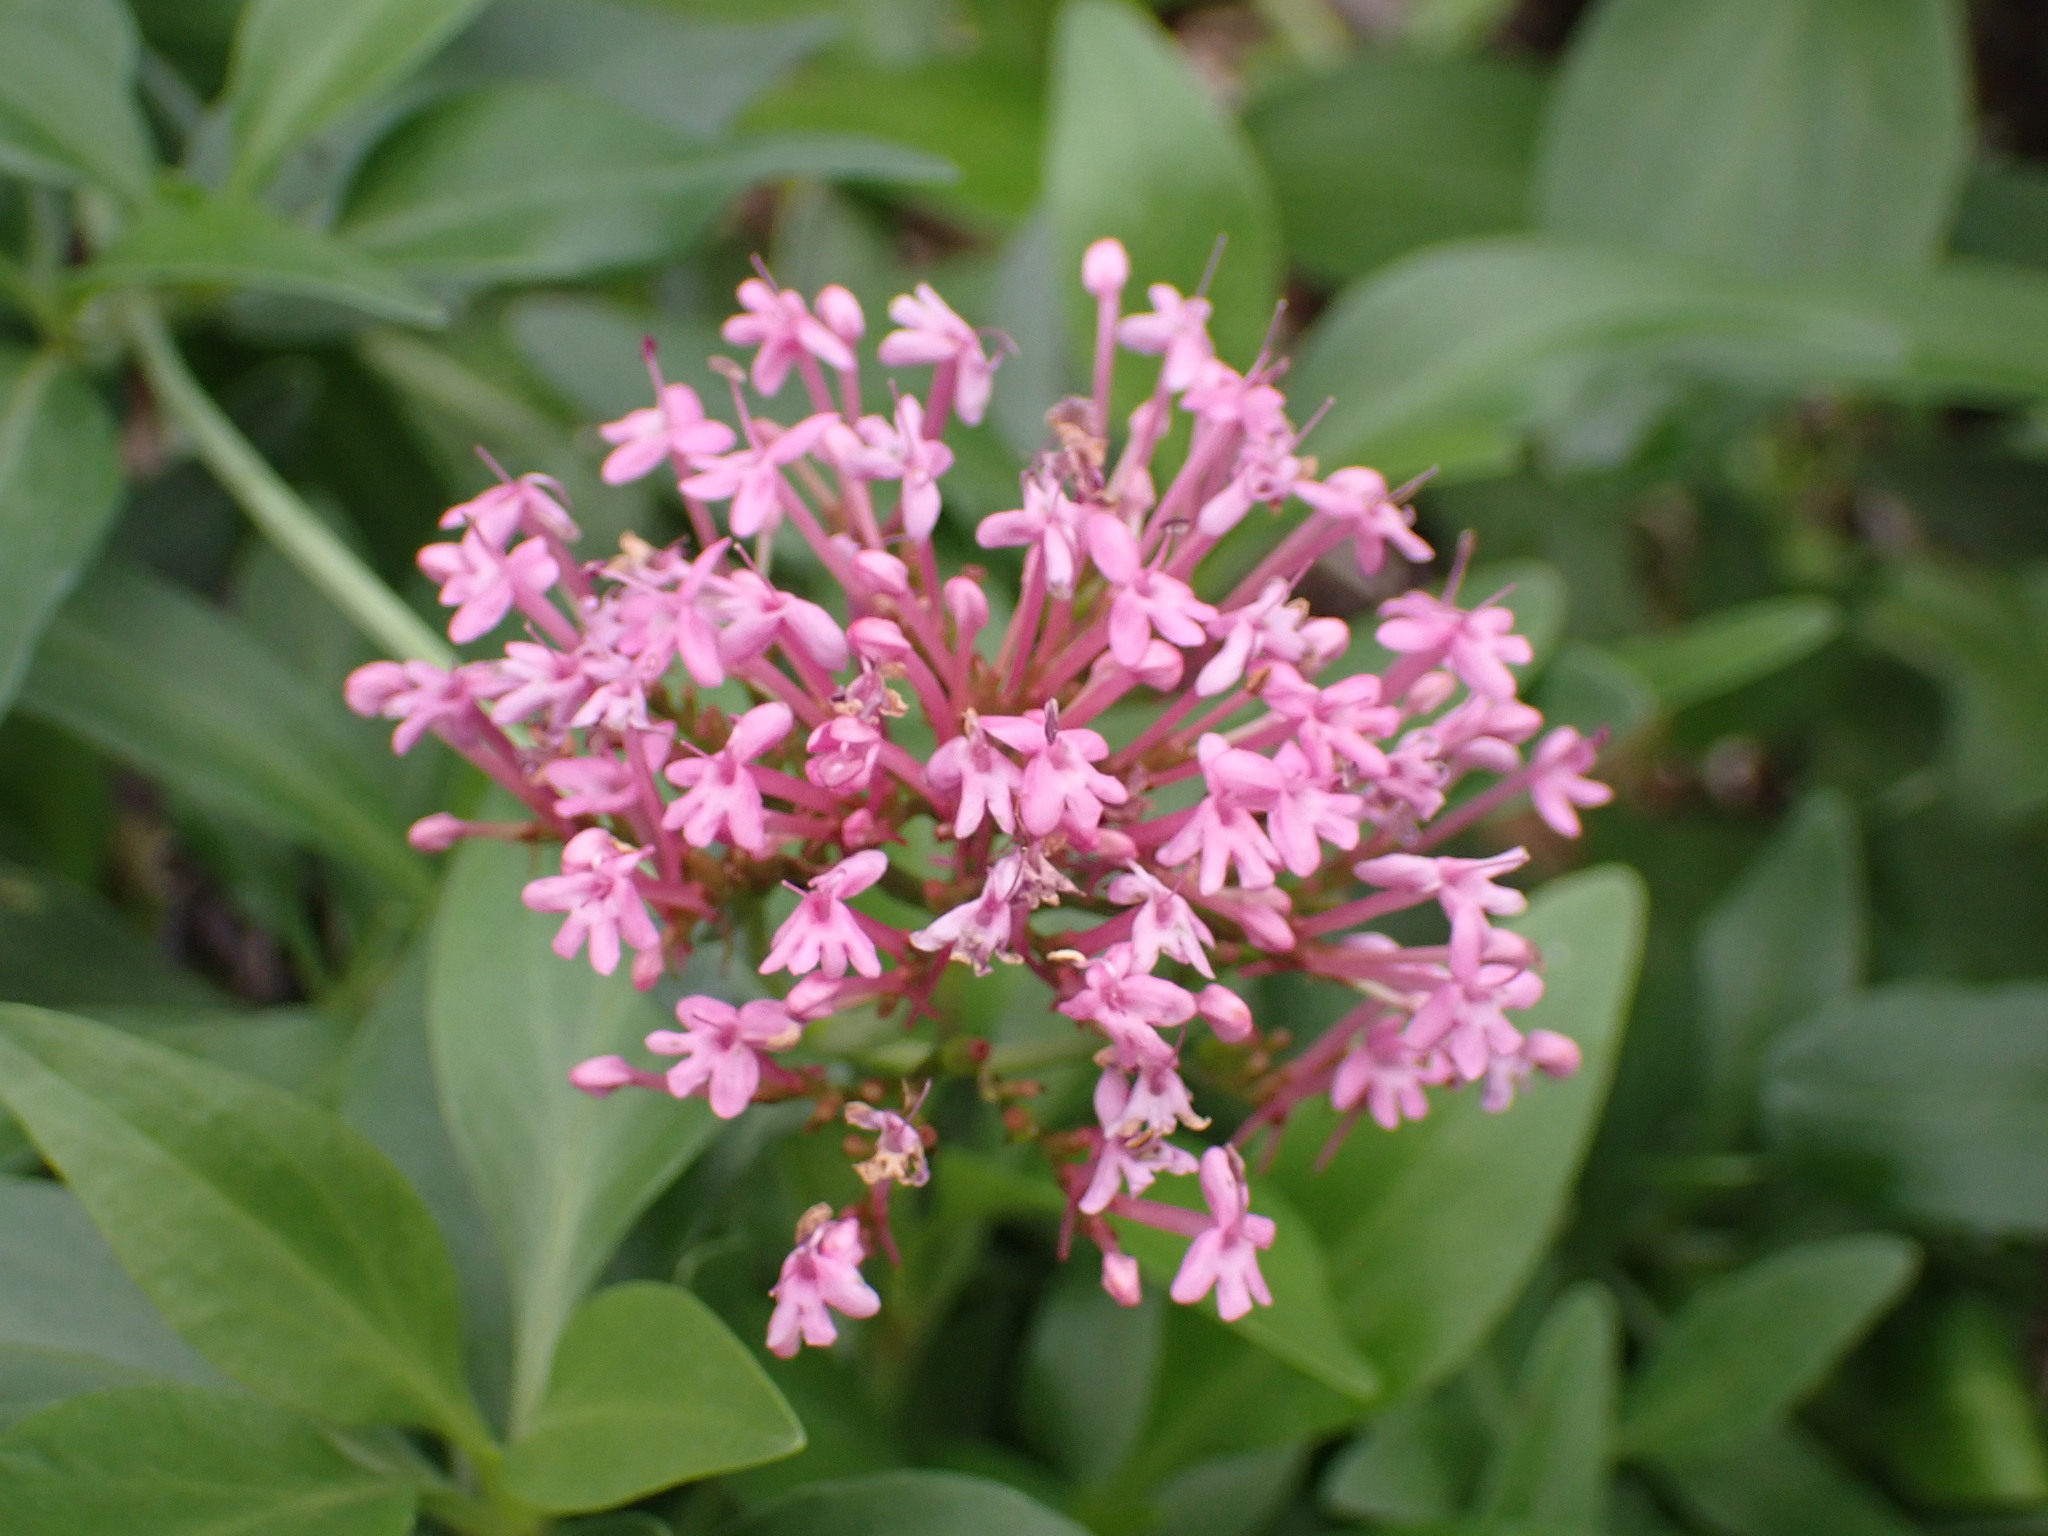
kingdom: Plantae
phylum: Tracheophyta
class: Magnoliopsida
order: Dipsacales
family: Caprifoliaceae
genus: Centranthus
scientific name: Centranthus ruber
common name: Red valerian
